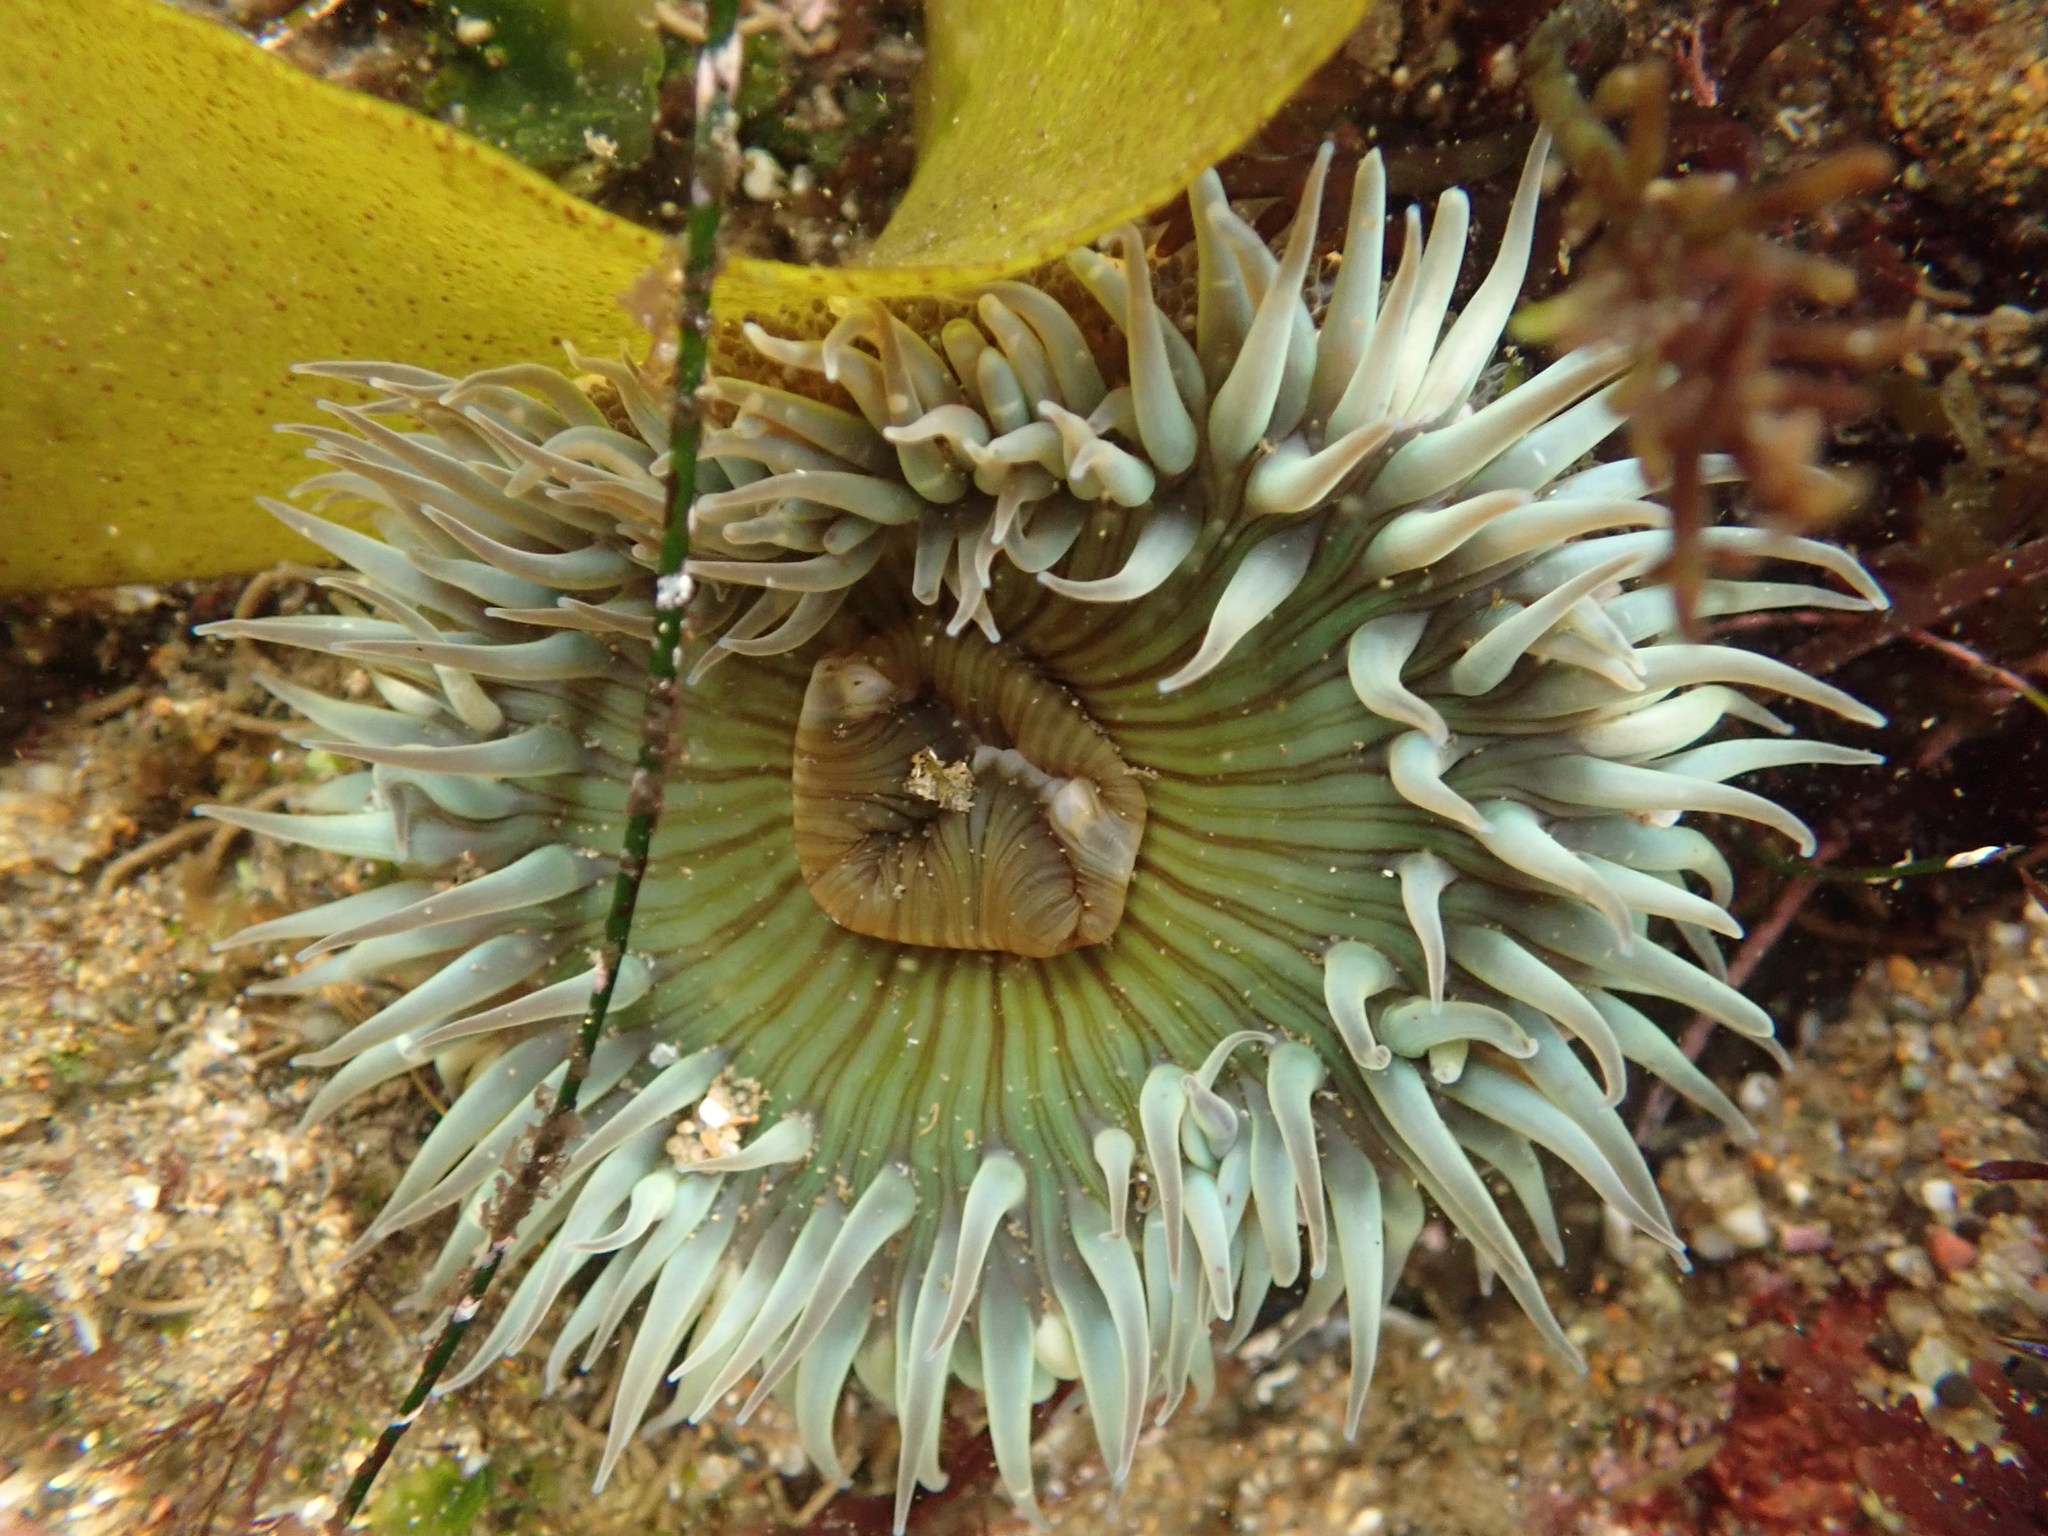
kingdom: Animalia
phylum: Cnidaria
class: Anthozoa
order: Actiniaria
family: Actiniidae
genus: Anthopleura
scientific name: Anthopleura sola
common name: Sun anemone
